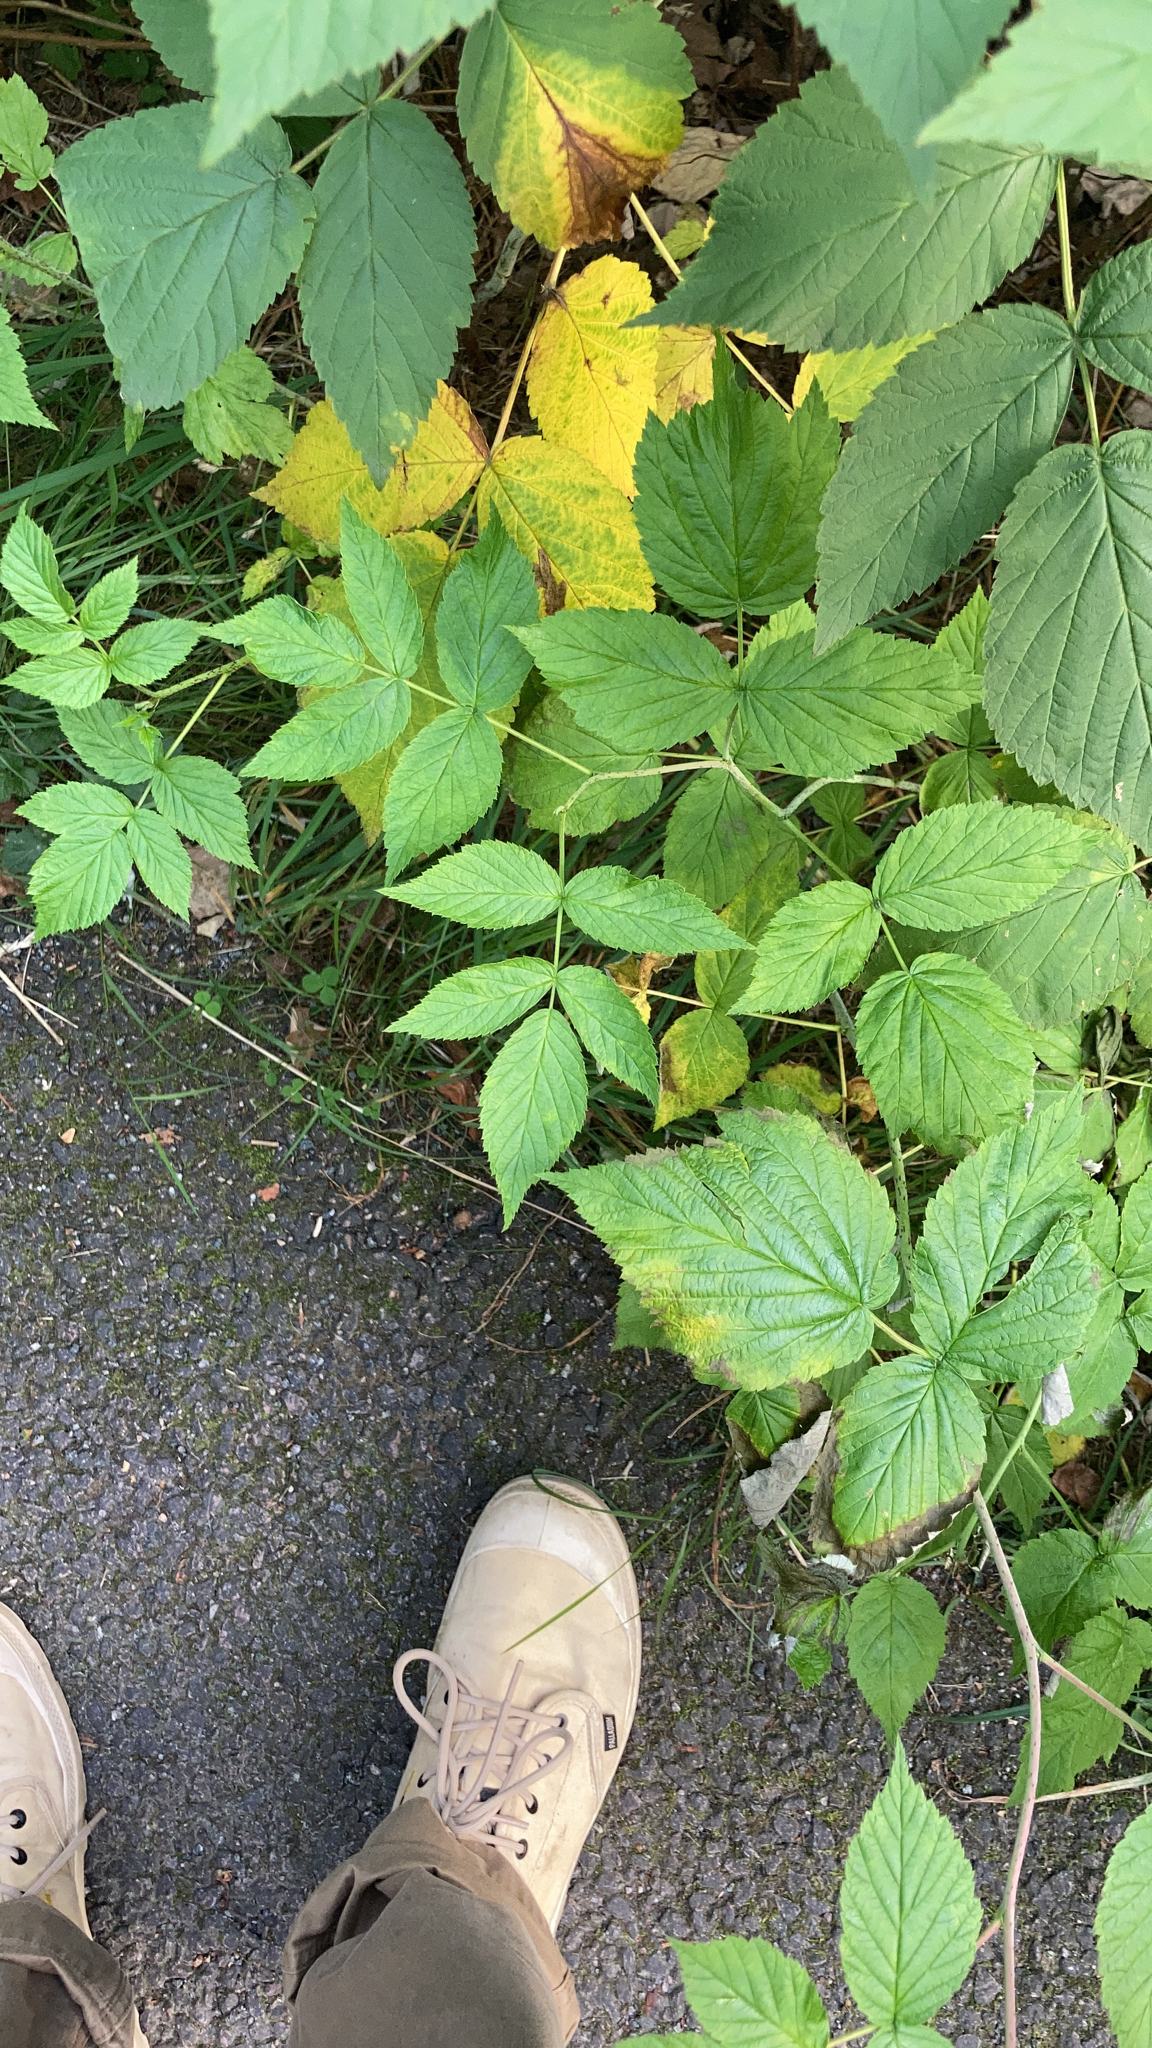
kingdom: Plantae
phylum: Tracheophyta
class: Magnoliopsida
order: Rosales
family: Rosaceae
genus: Rubus
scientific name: Rubus idaeus
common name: Raspberry
